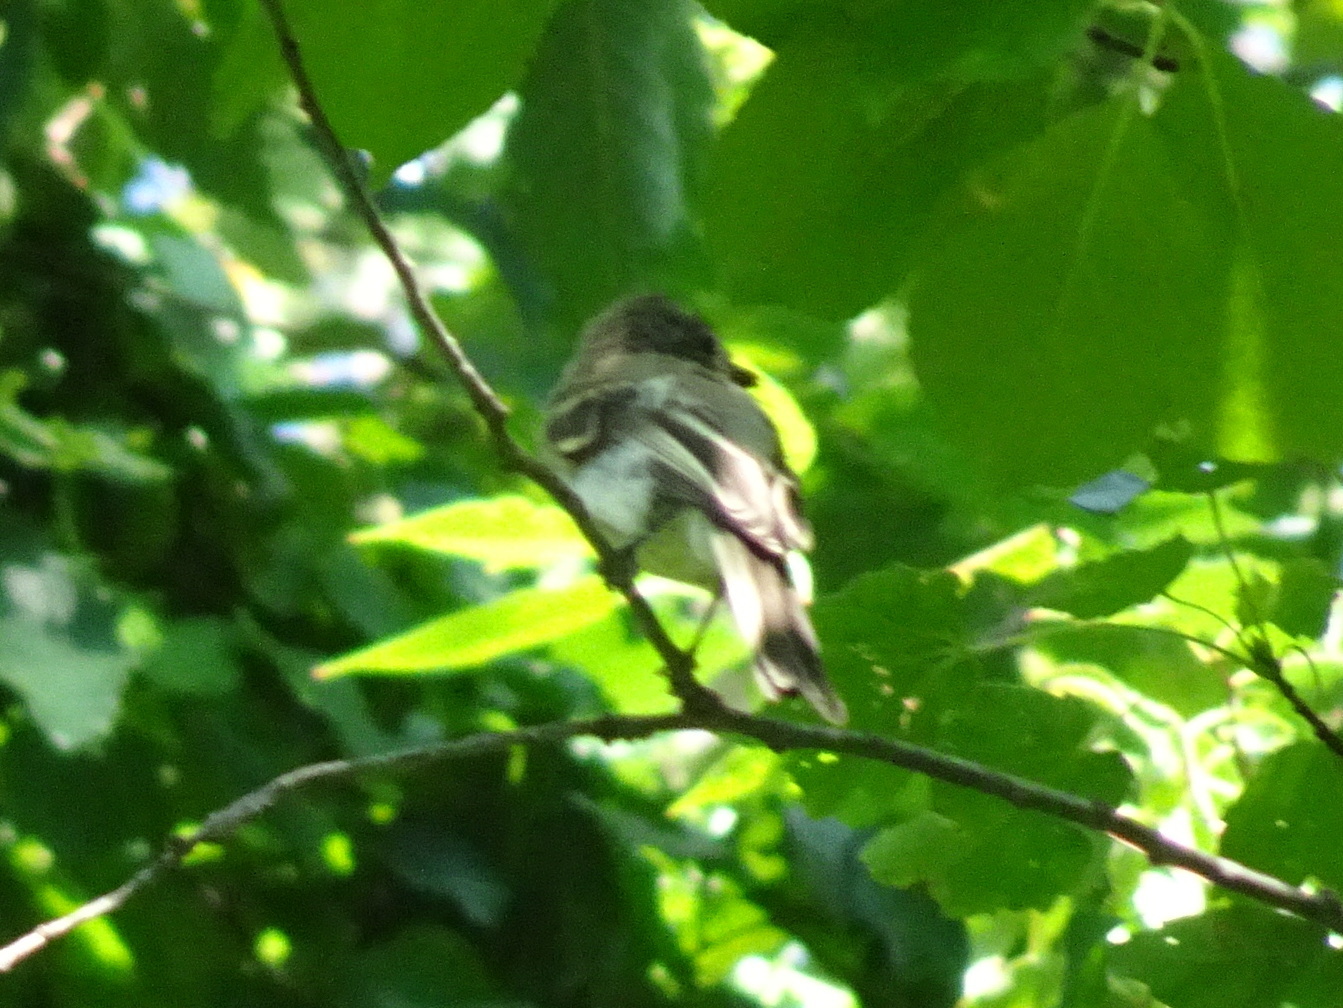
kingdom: Animalia
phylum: Chordata
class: Aves
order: Passeriformes
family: Tyrannidae
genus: Sayornis
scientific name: Sayornis phoebe
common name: Eastern phoebe
